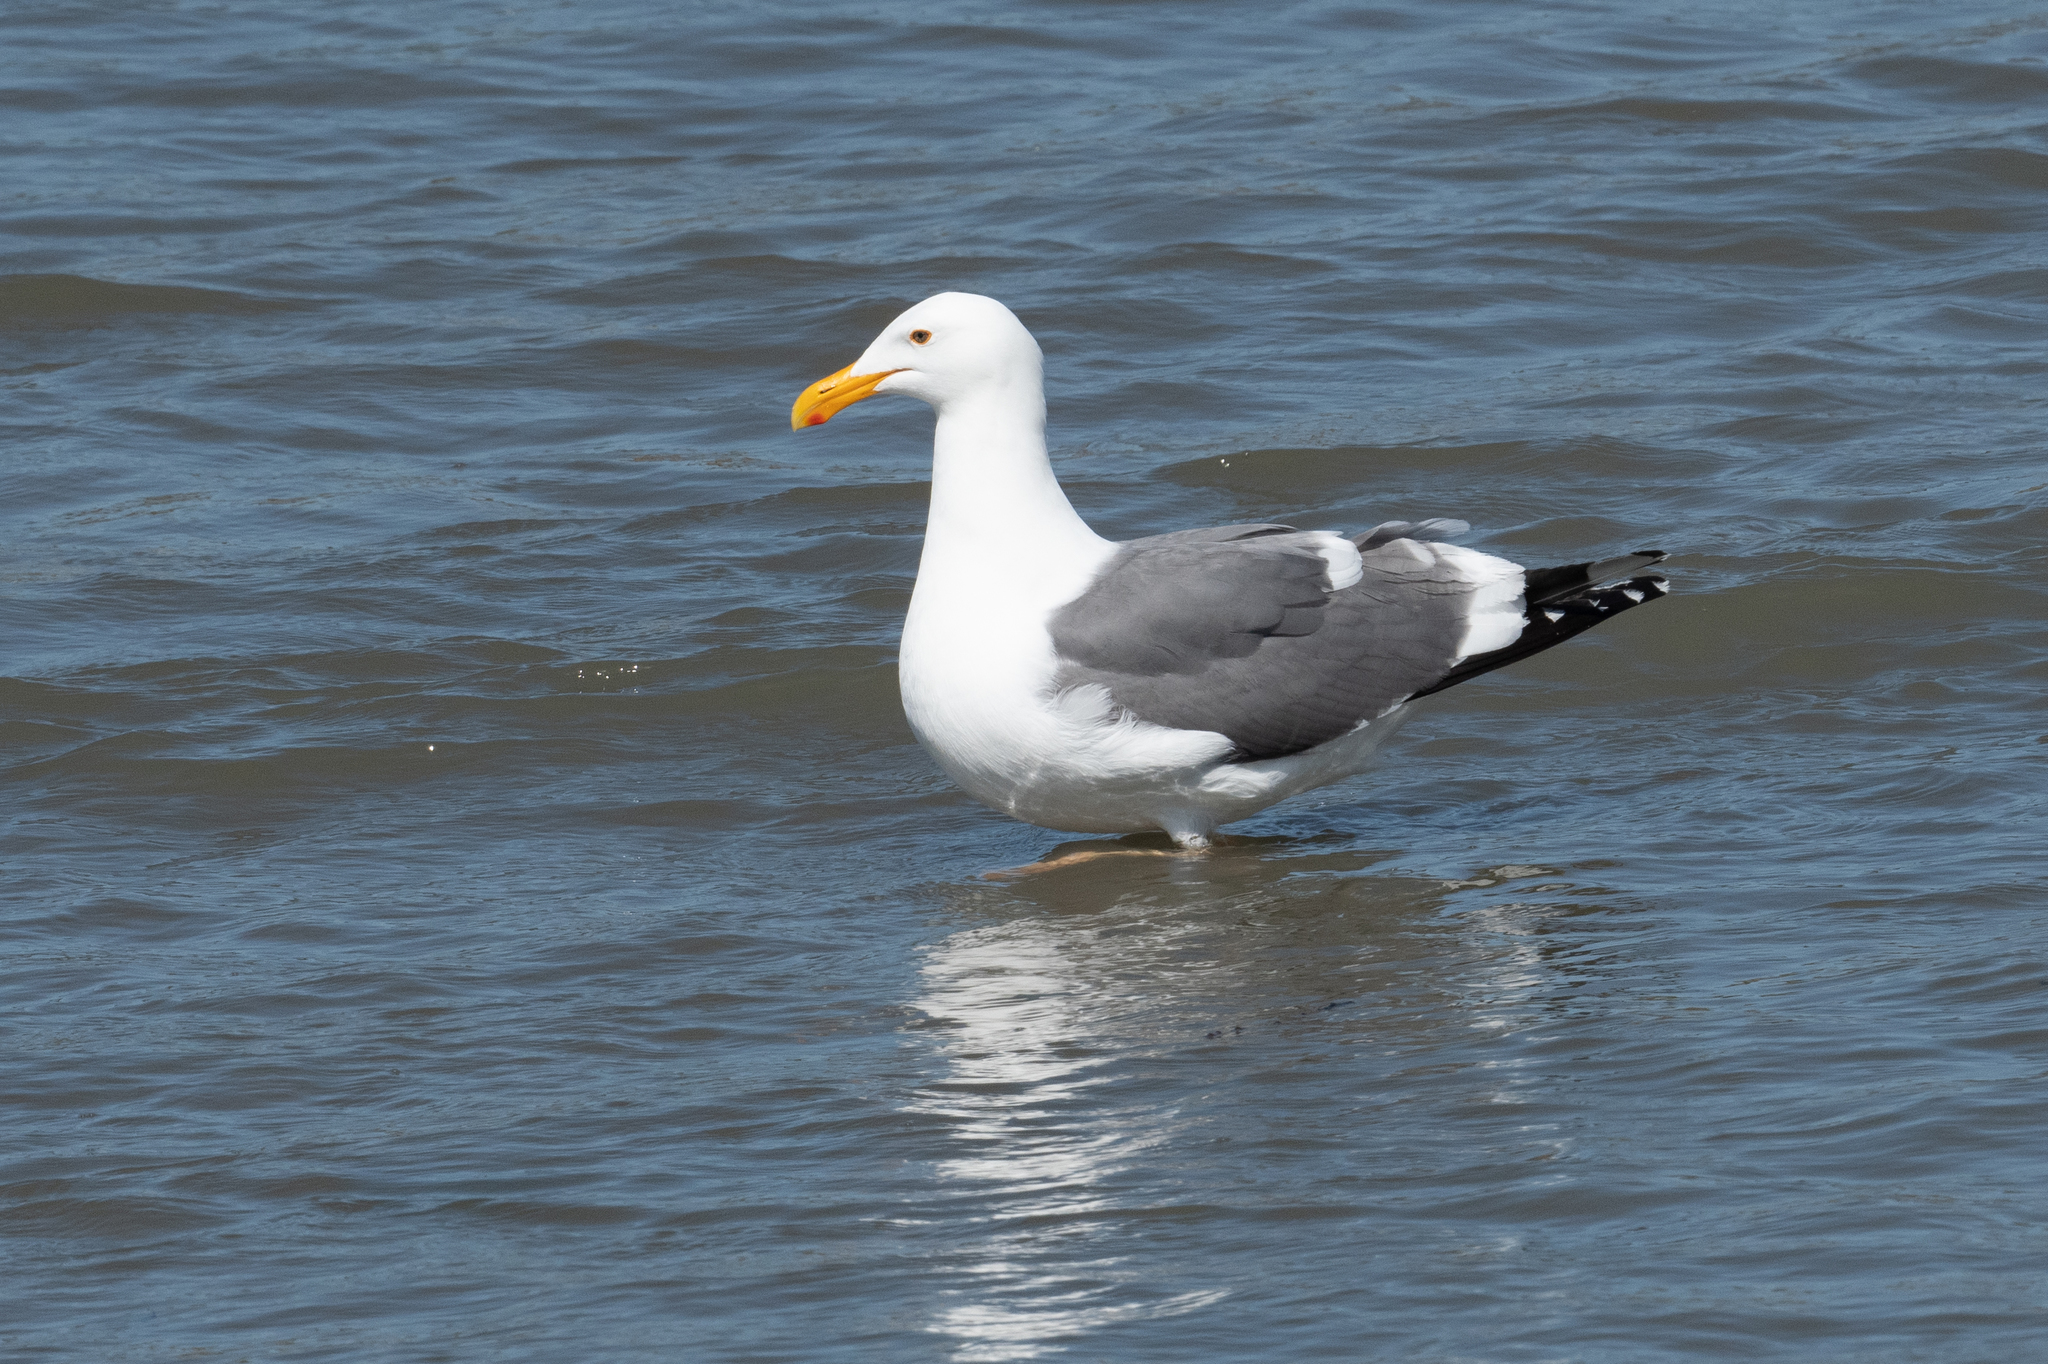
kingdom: Animalia
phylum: Chordata
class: Aves
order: Charadriiformes
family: Laridae
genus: Larus
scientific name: Larus occidentalis
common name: Western gull
